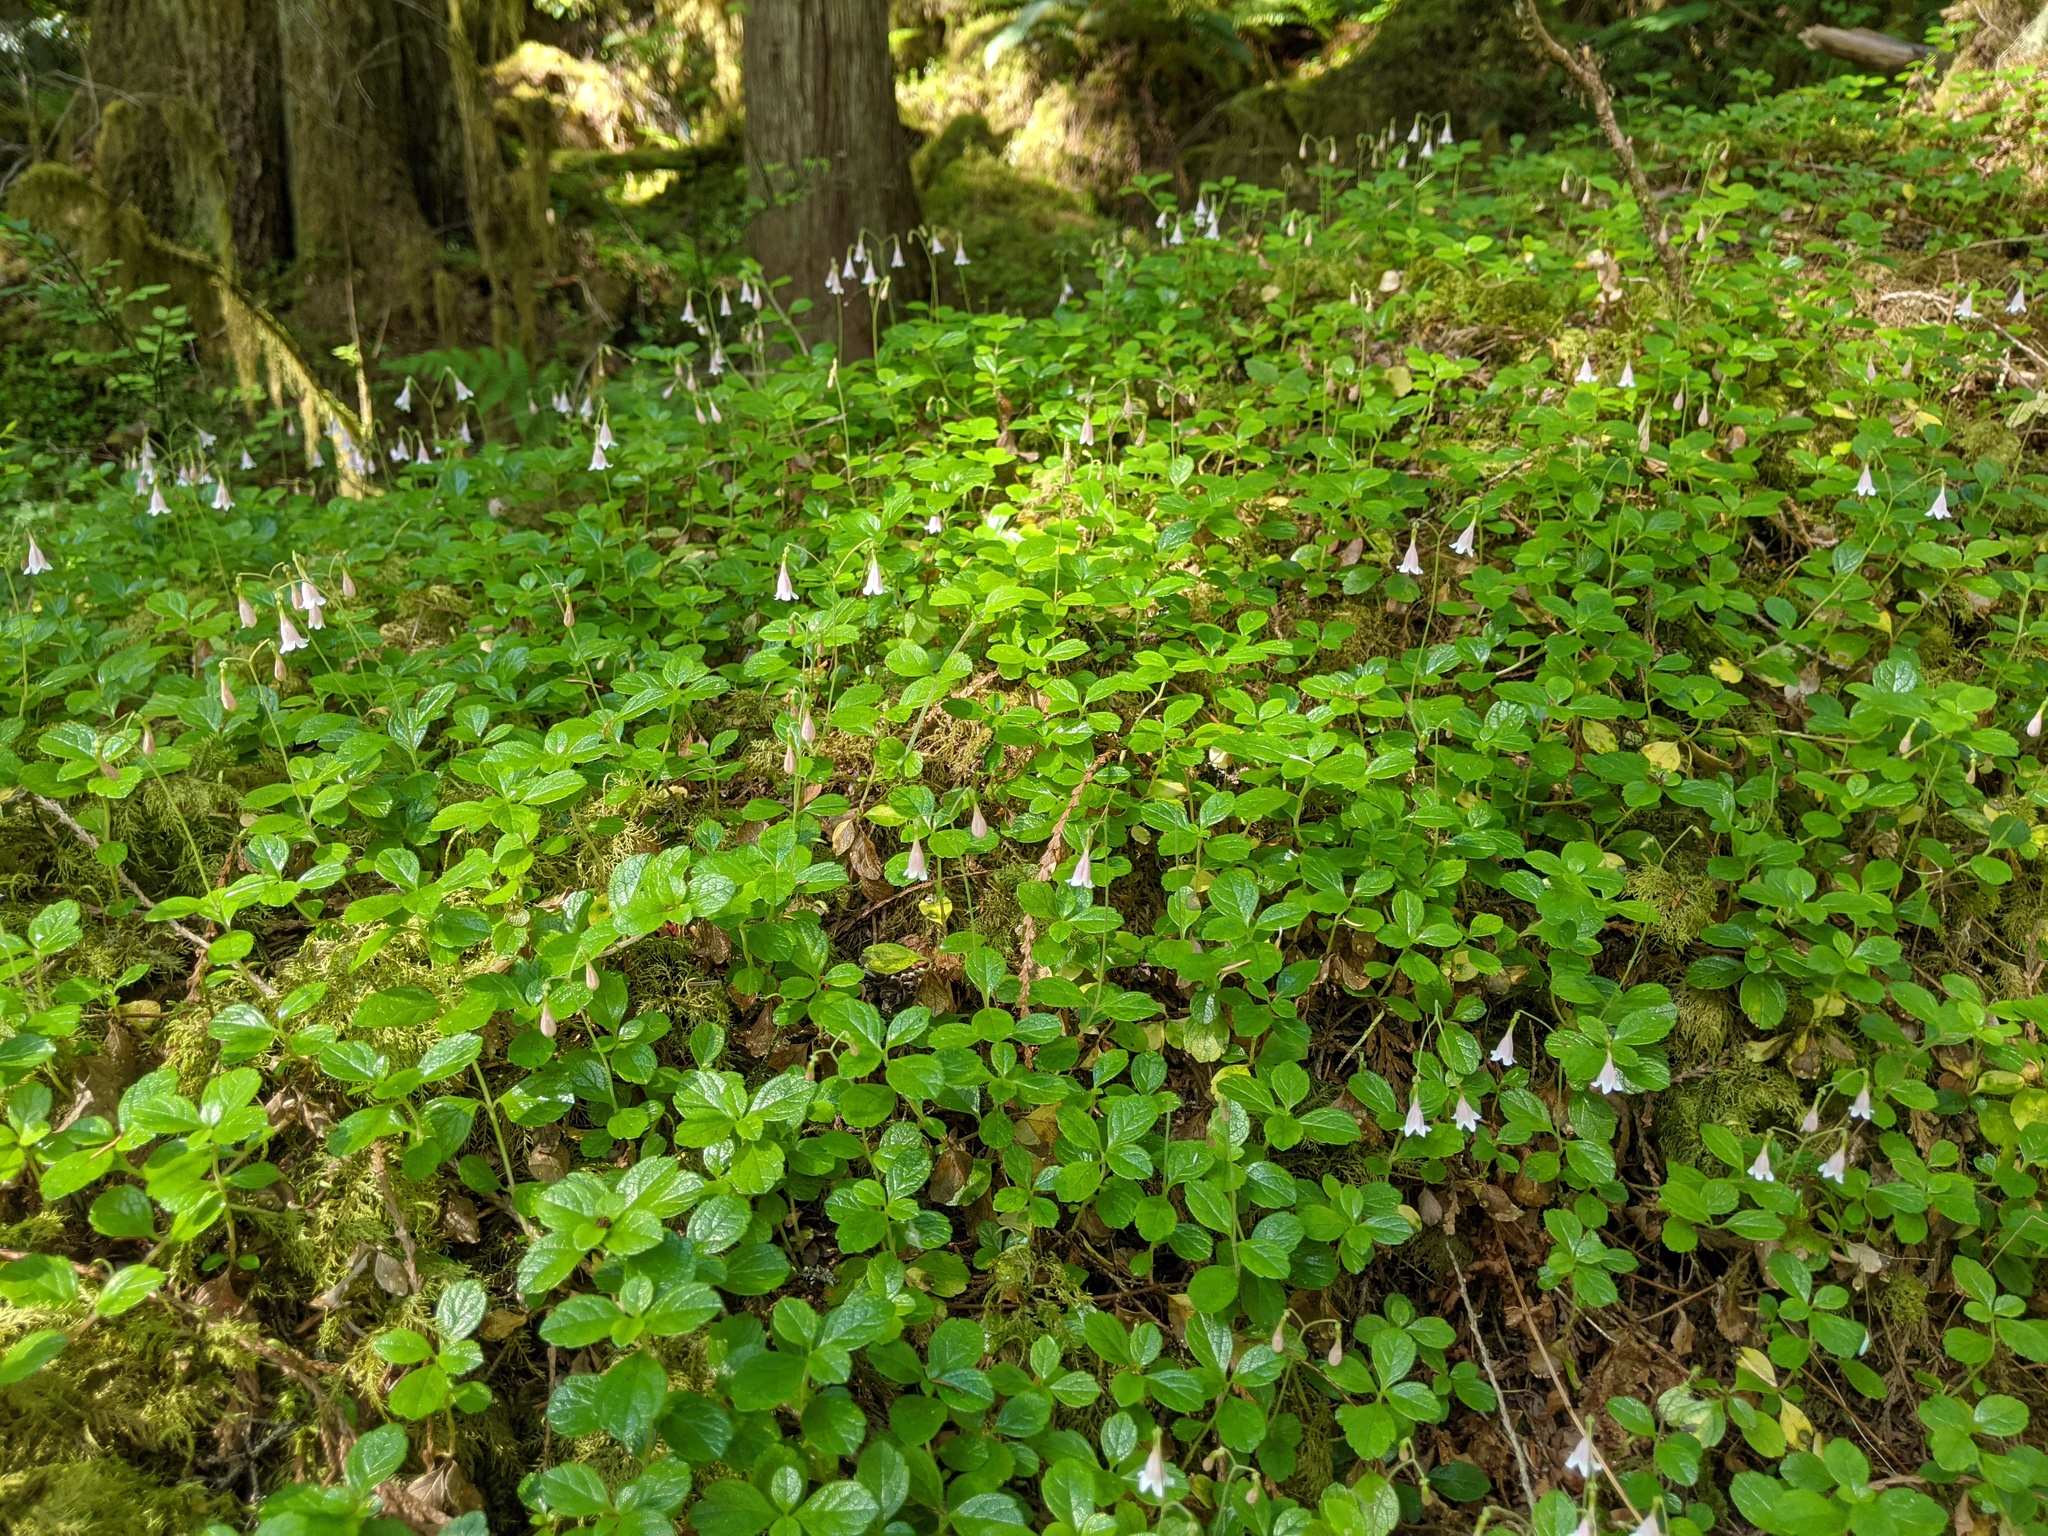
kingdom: Plantae
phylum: Tracheophyta
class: Magnoliopsida
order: Dipsacales
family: Caprifoliaceae
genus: Linnaea
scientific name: Linnaea borealis
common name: Twinflower
